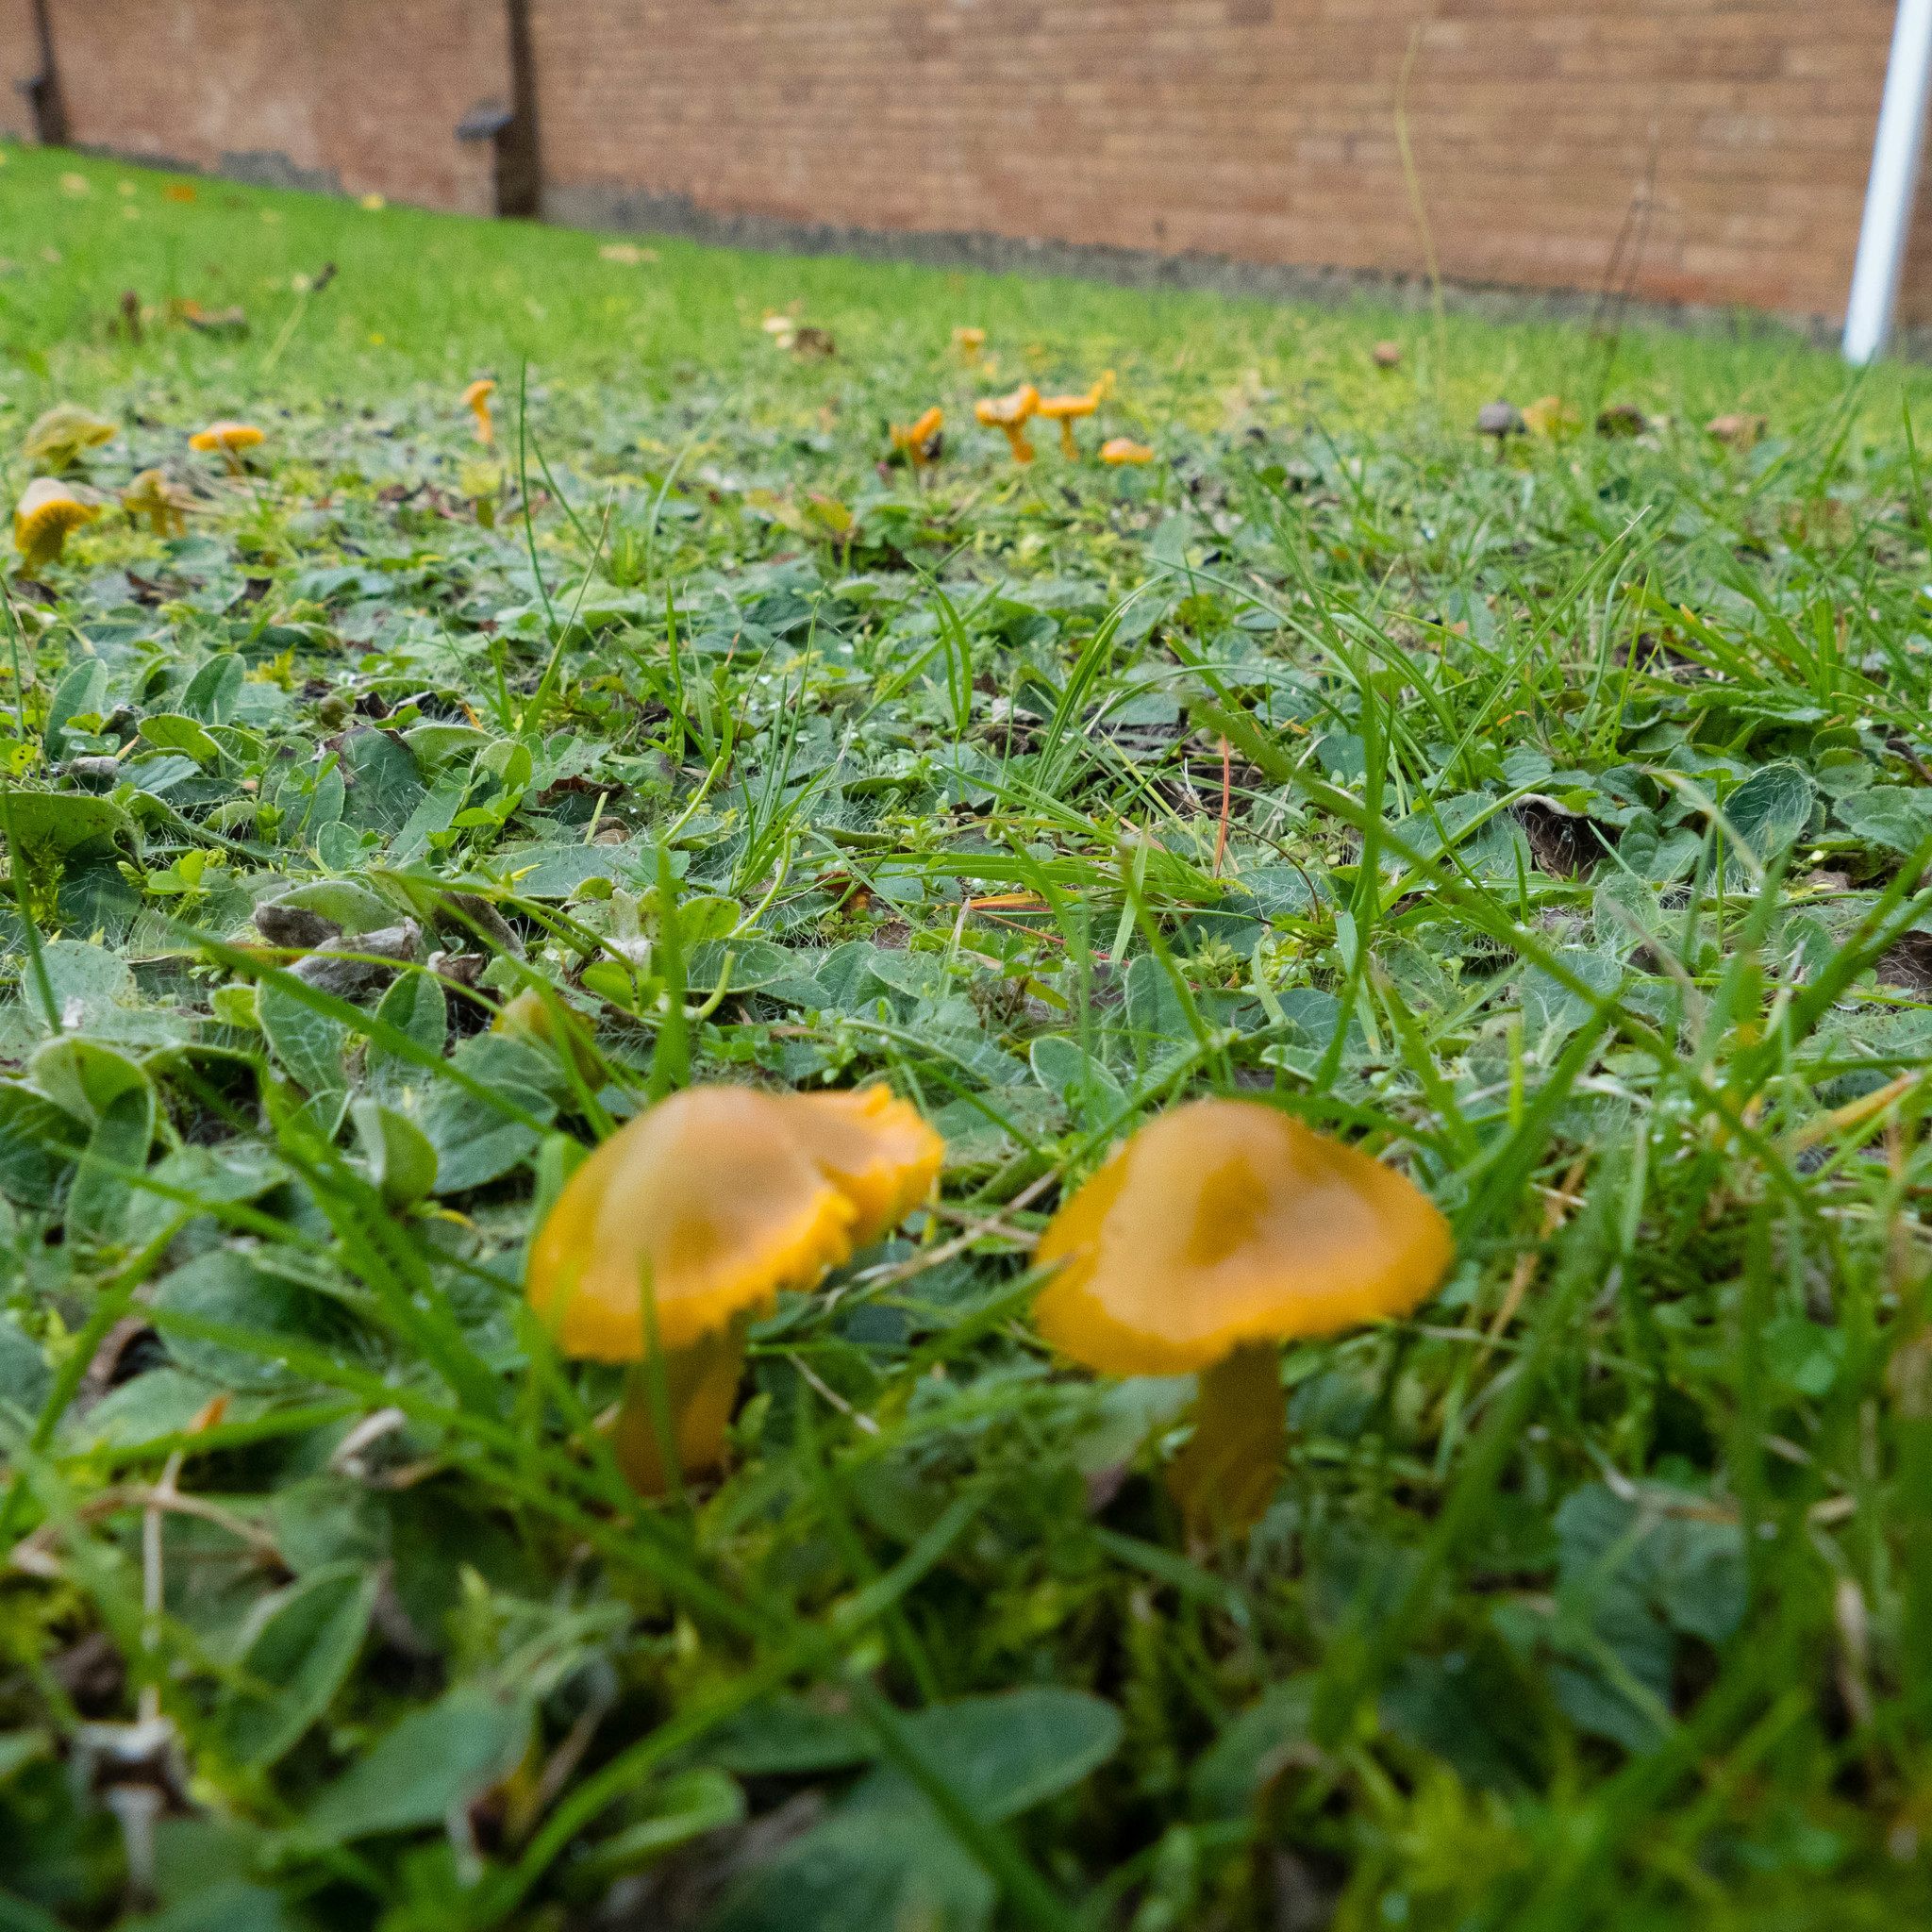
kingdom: Fungi
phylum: Basidiomycota
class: Agaricomycetes
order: Agaricales
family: Hygrophoraceae
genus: Gliophorus
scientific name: Gliophorus psittacinus
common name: Parrot wax-cap
